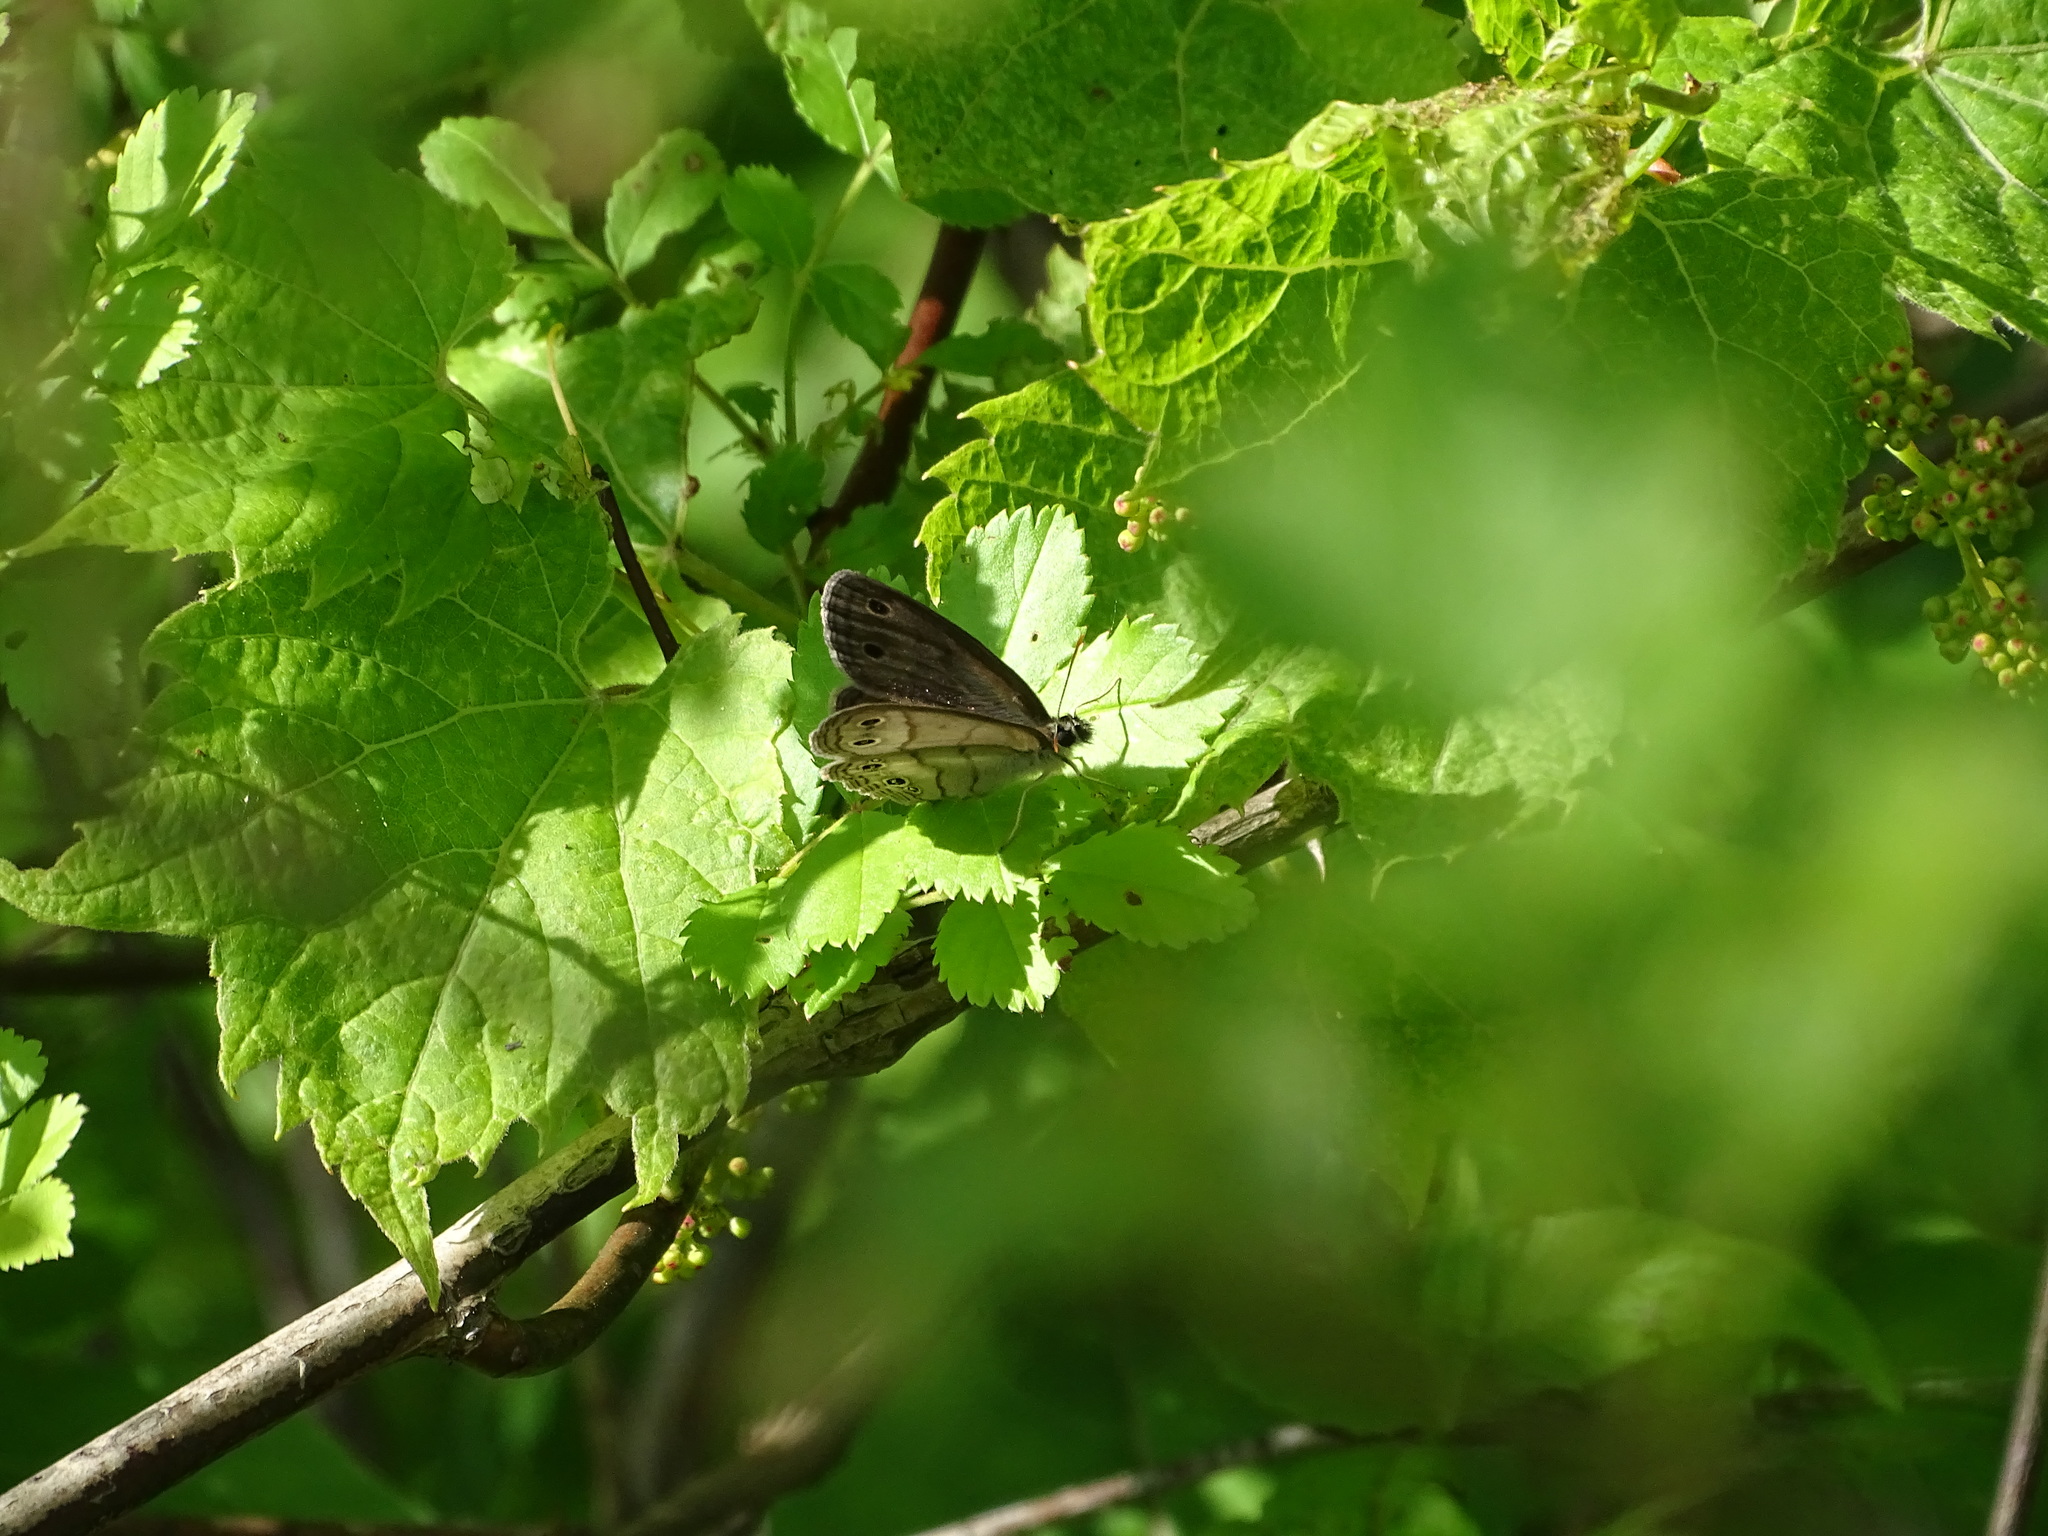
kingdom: Animalia
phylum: Arthropoda
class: Insecta
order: Lepidoptera
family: Nymphalidae
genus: Euptychia
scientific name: Euptychia cymela
